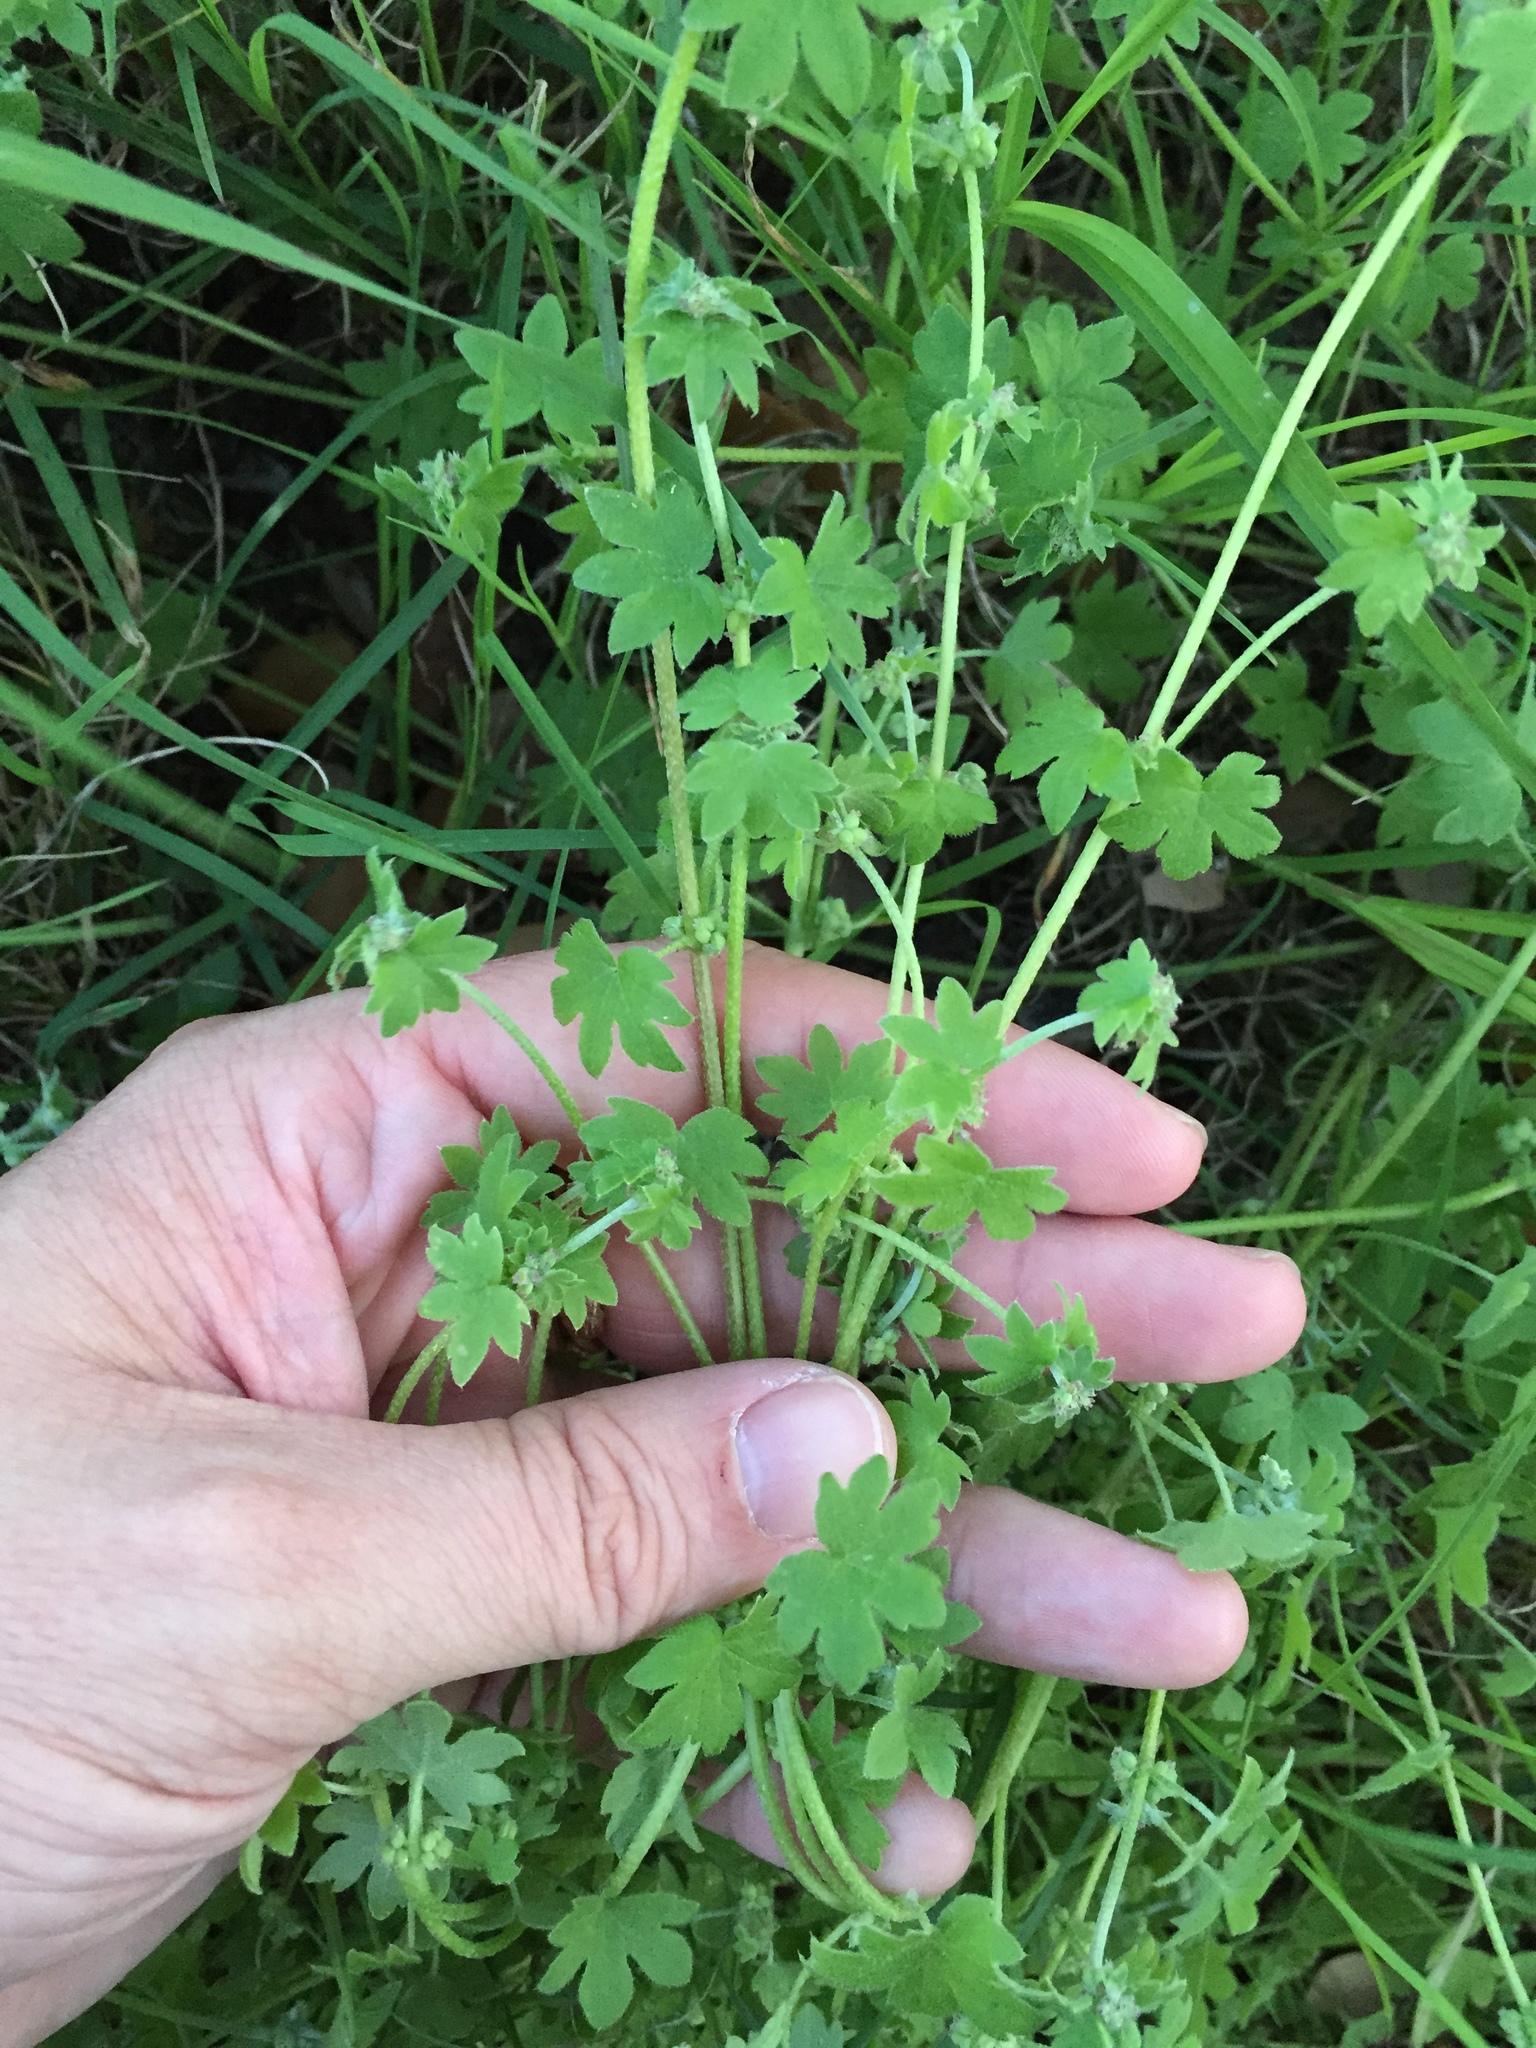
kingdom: Plantae
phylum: Tracheophyta
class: Magnoliopsida
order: Apiales
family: Apiaceae
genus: Bowlesia
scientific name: Bowlesia incana
